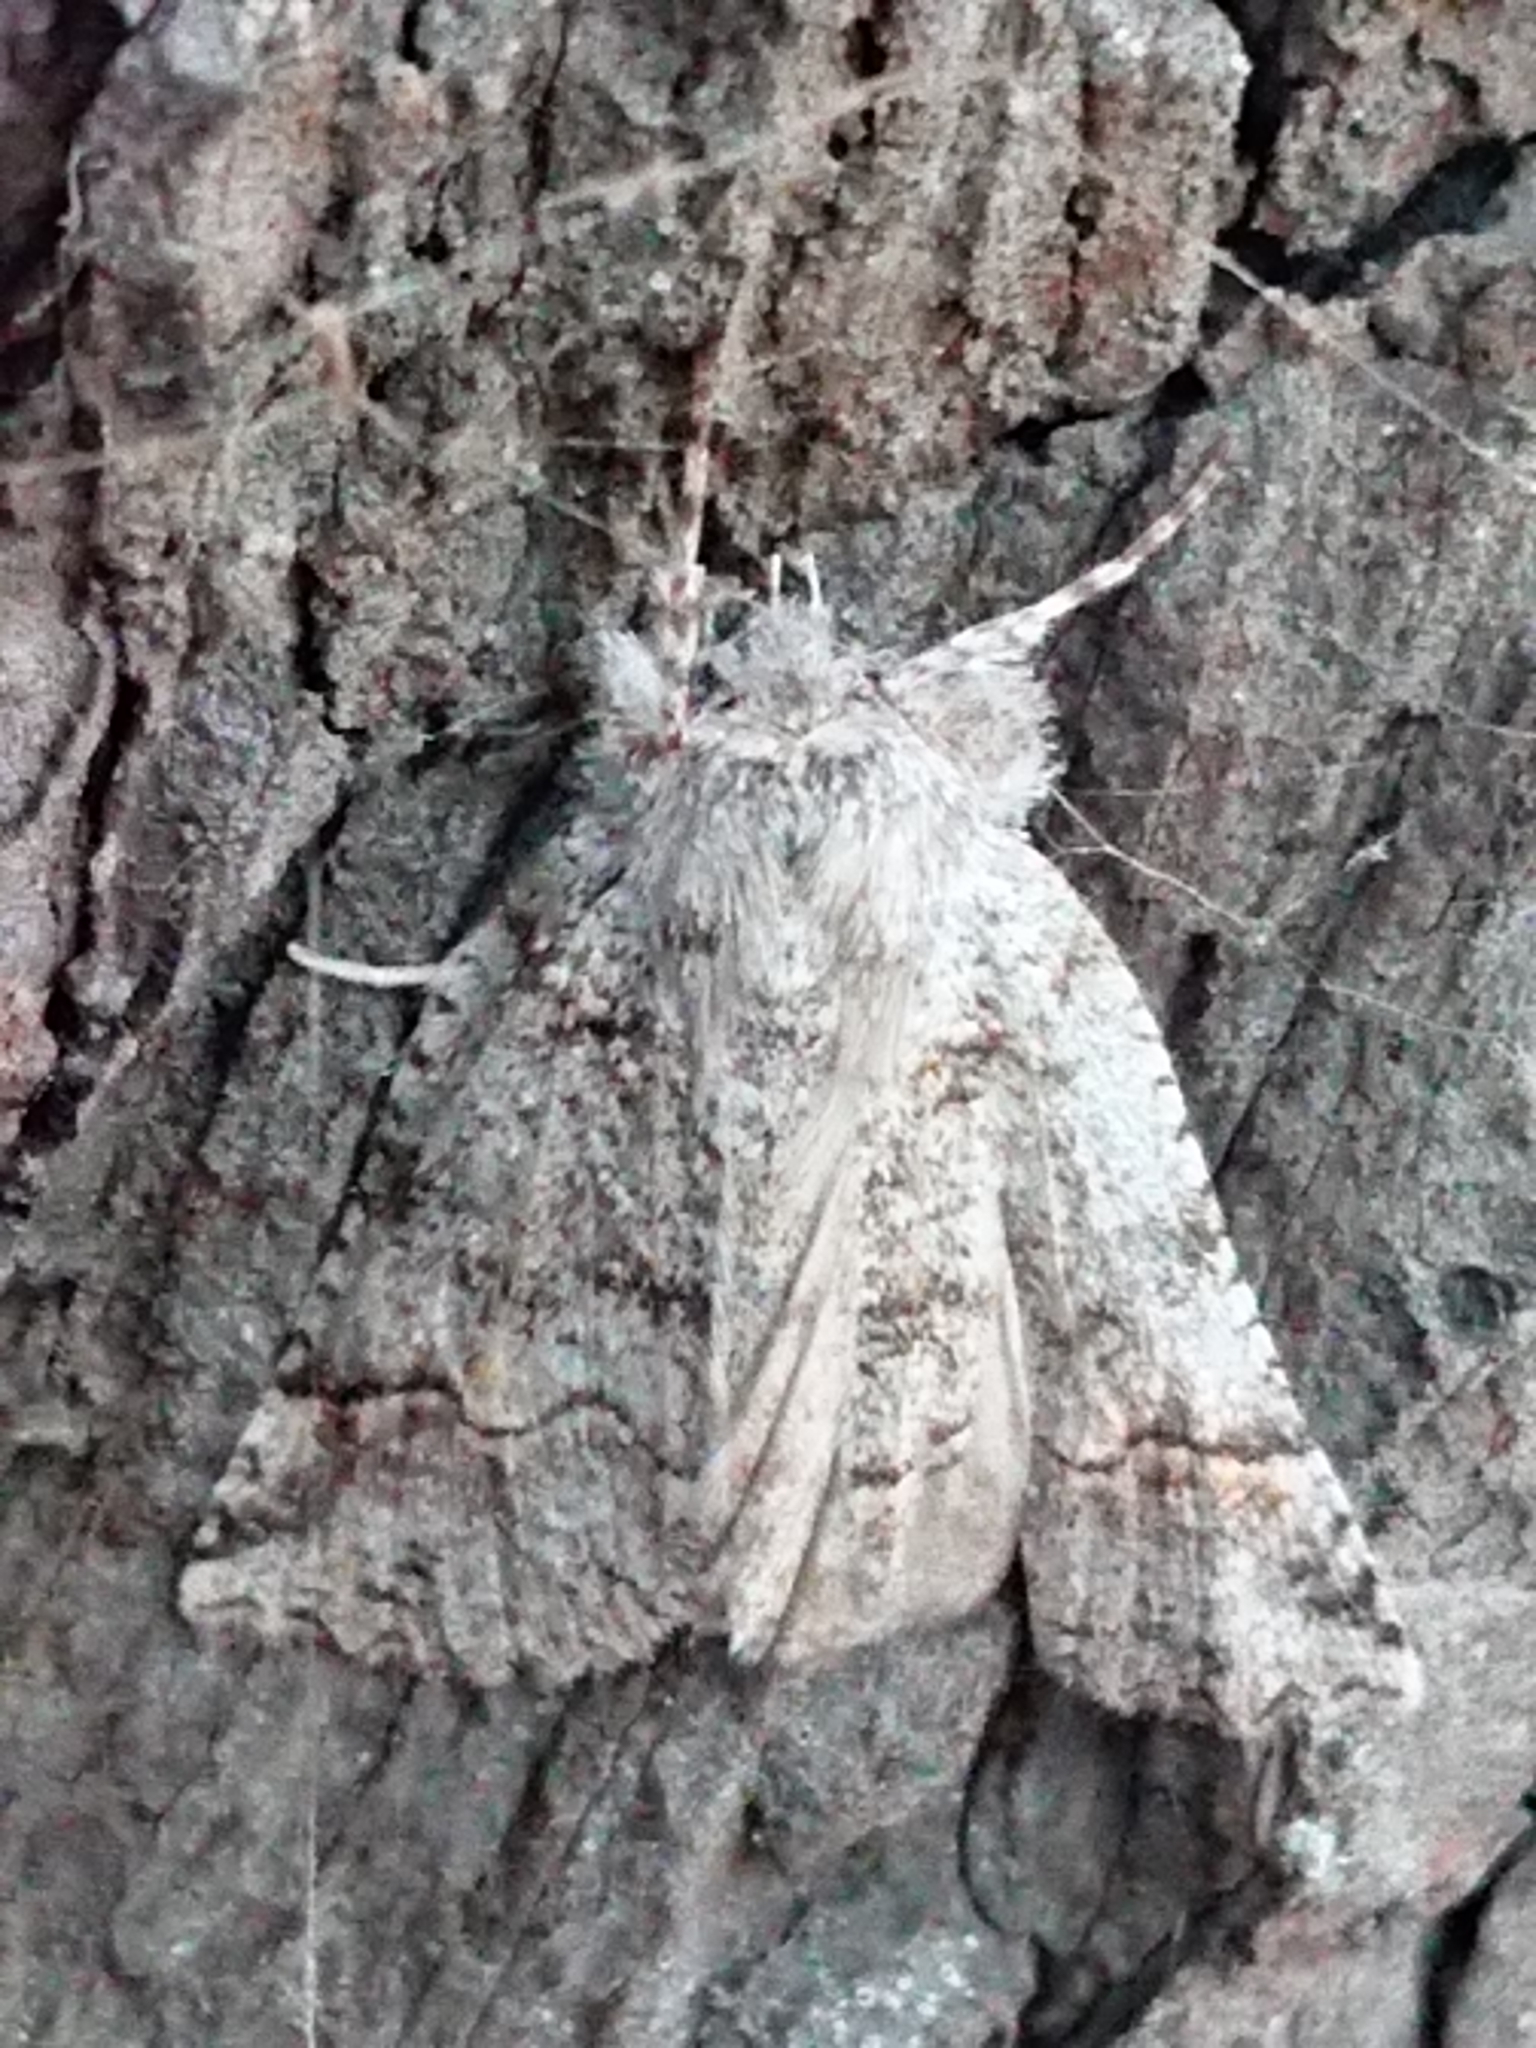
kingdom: Animalia
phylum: Arthropoda
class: Insecta
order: Lepidoptera
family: Geometridae
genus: Declana
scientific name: Declana floccosa
